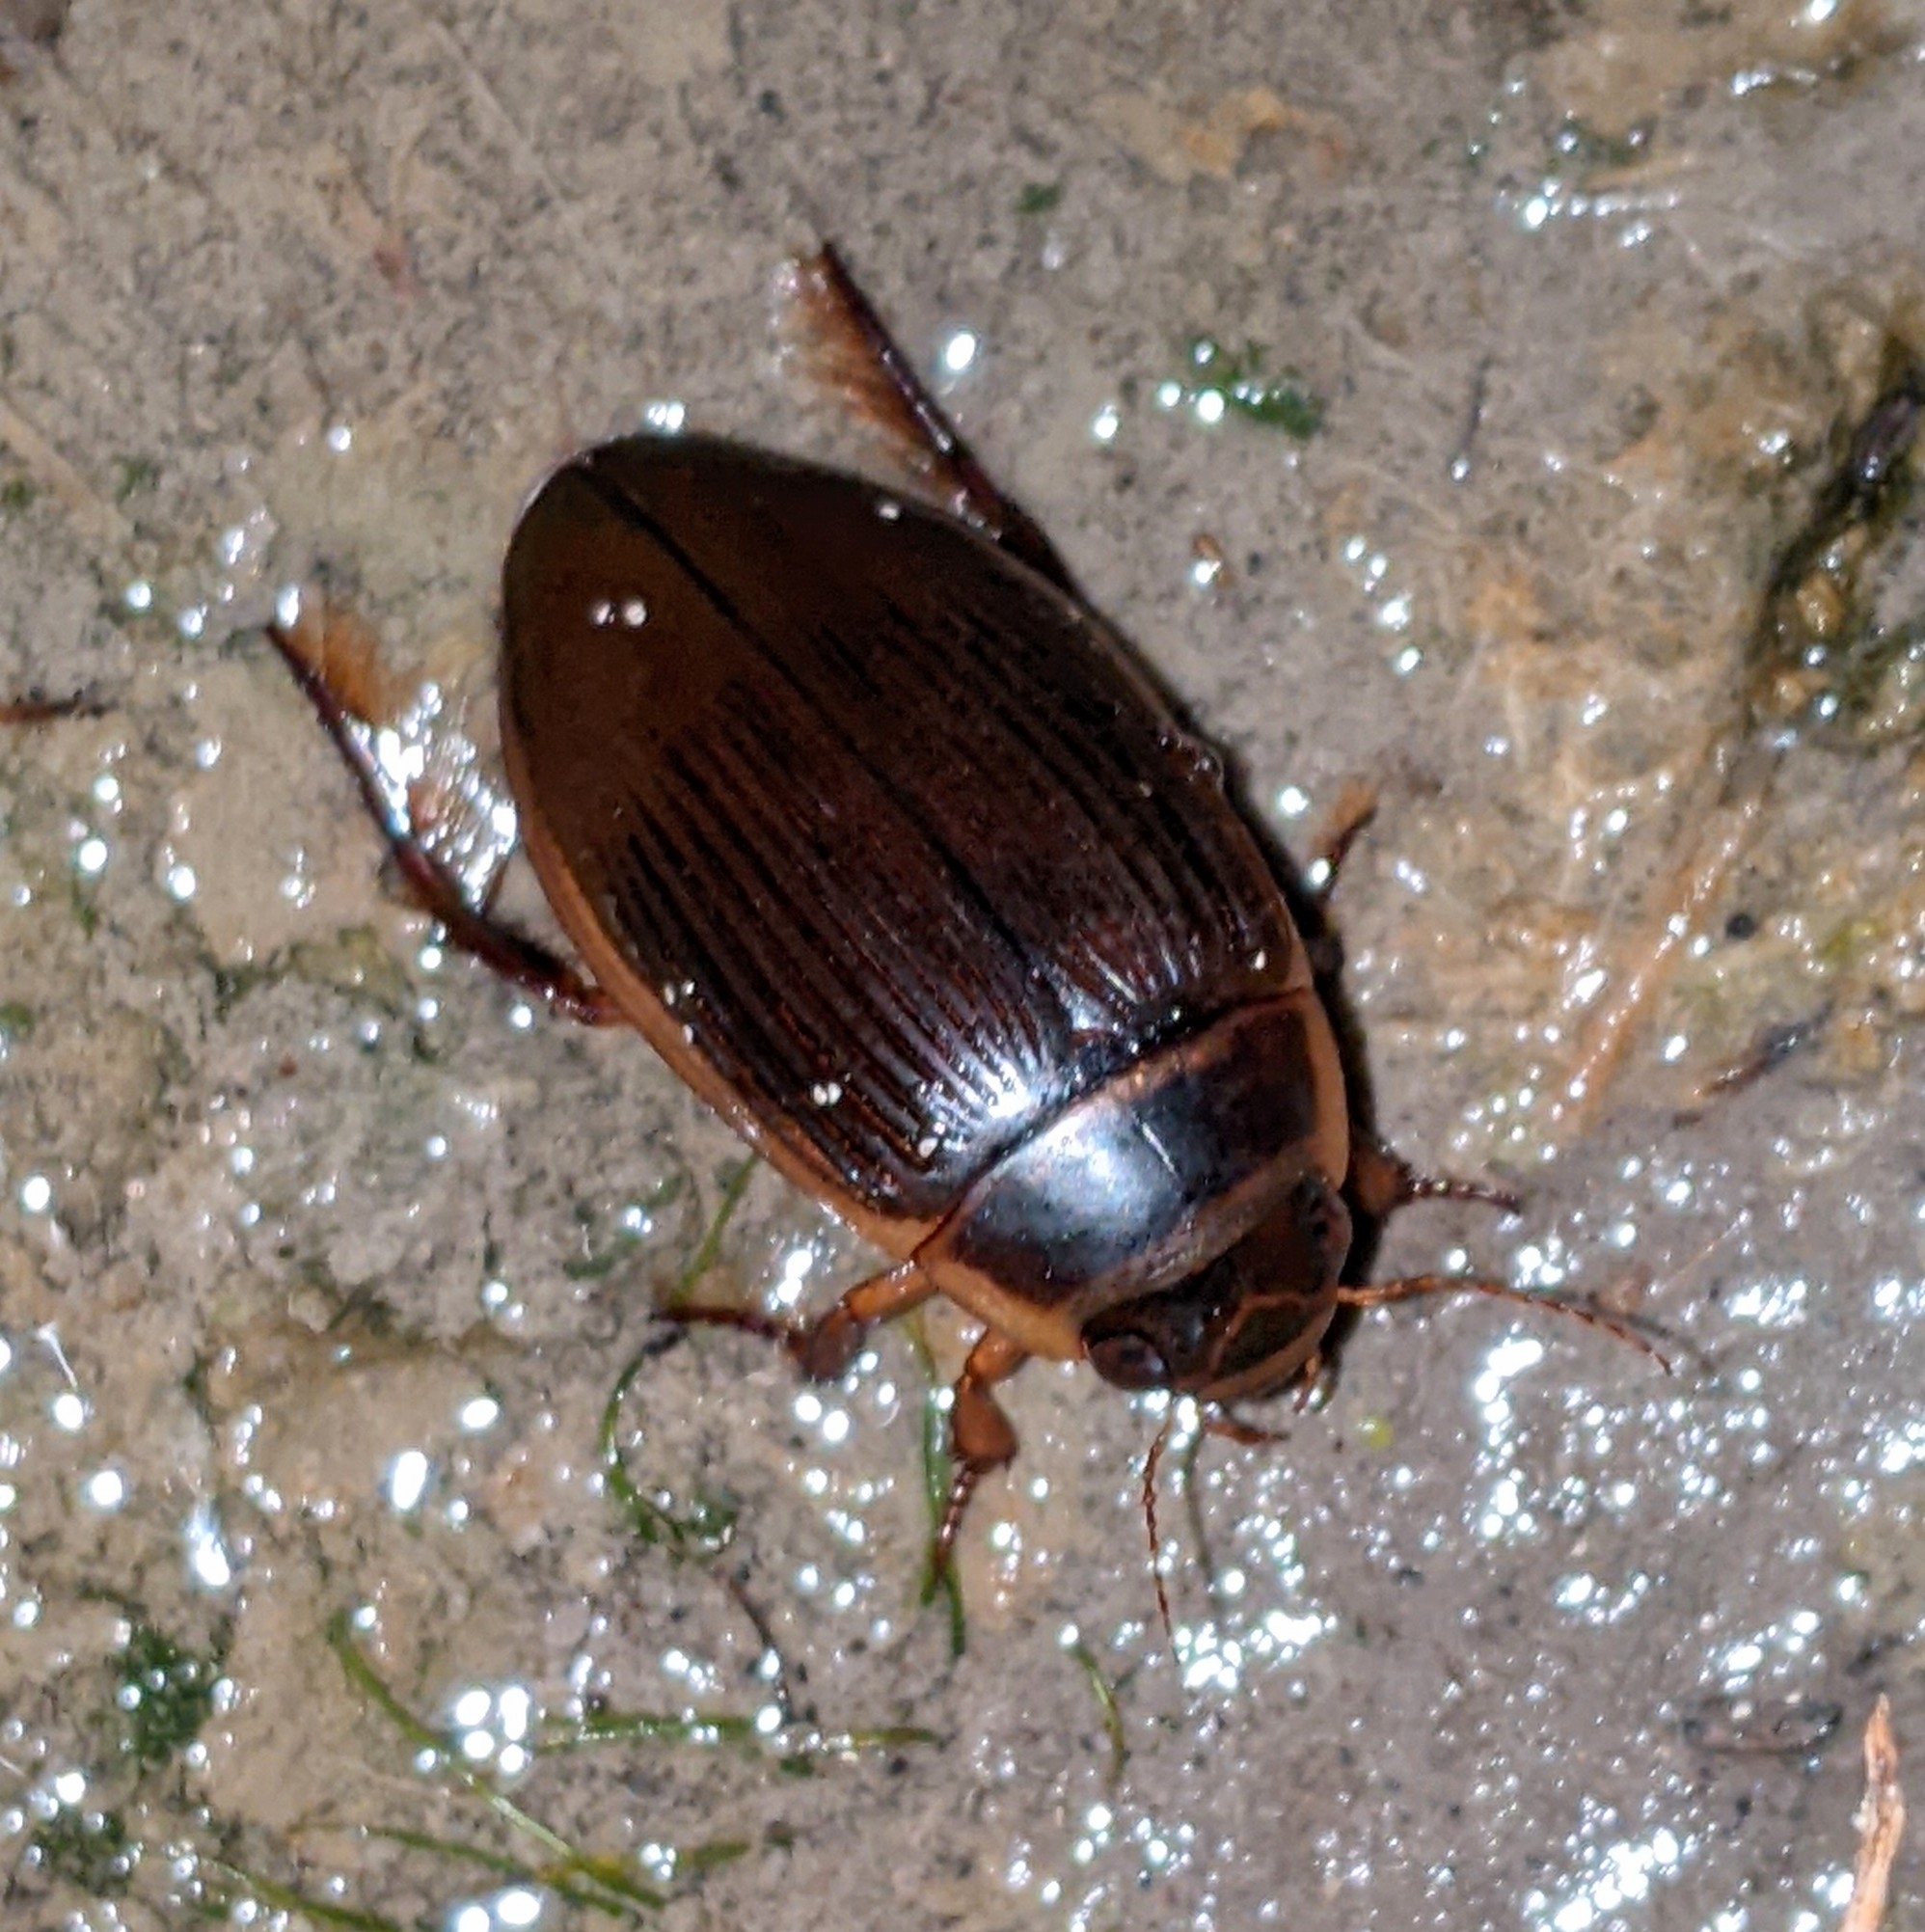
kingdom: Animalia
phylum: Arthropoda
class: Insecta
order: Coleoptera
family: Dytiscidae
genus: Dytiscus
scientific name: Dytiscus
